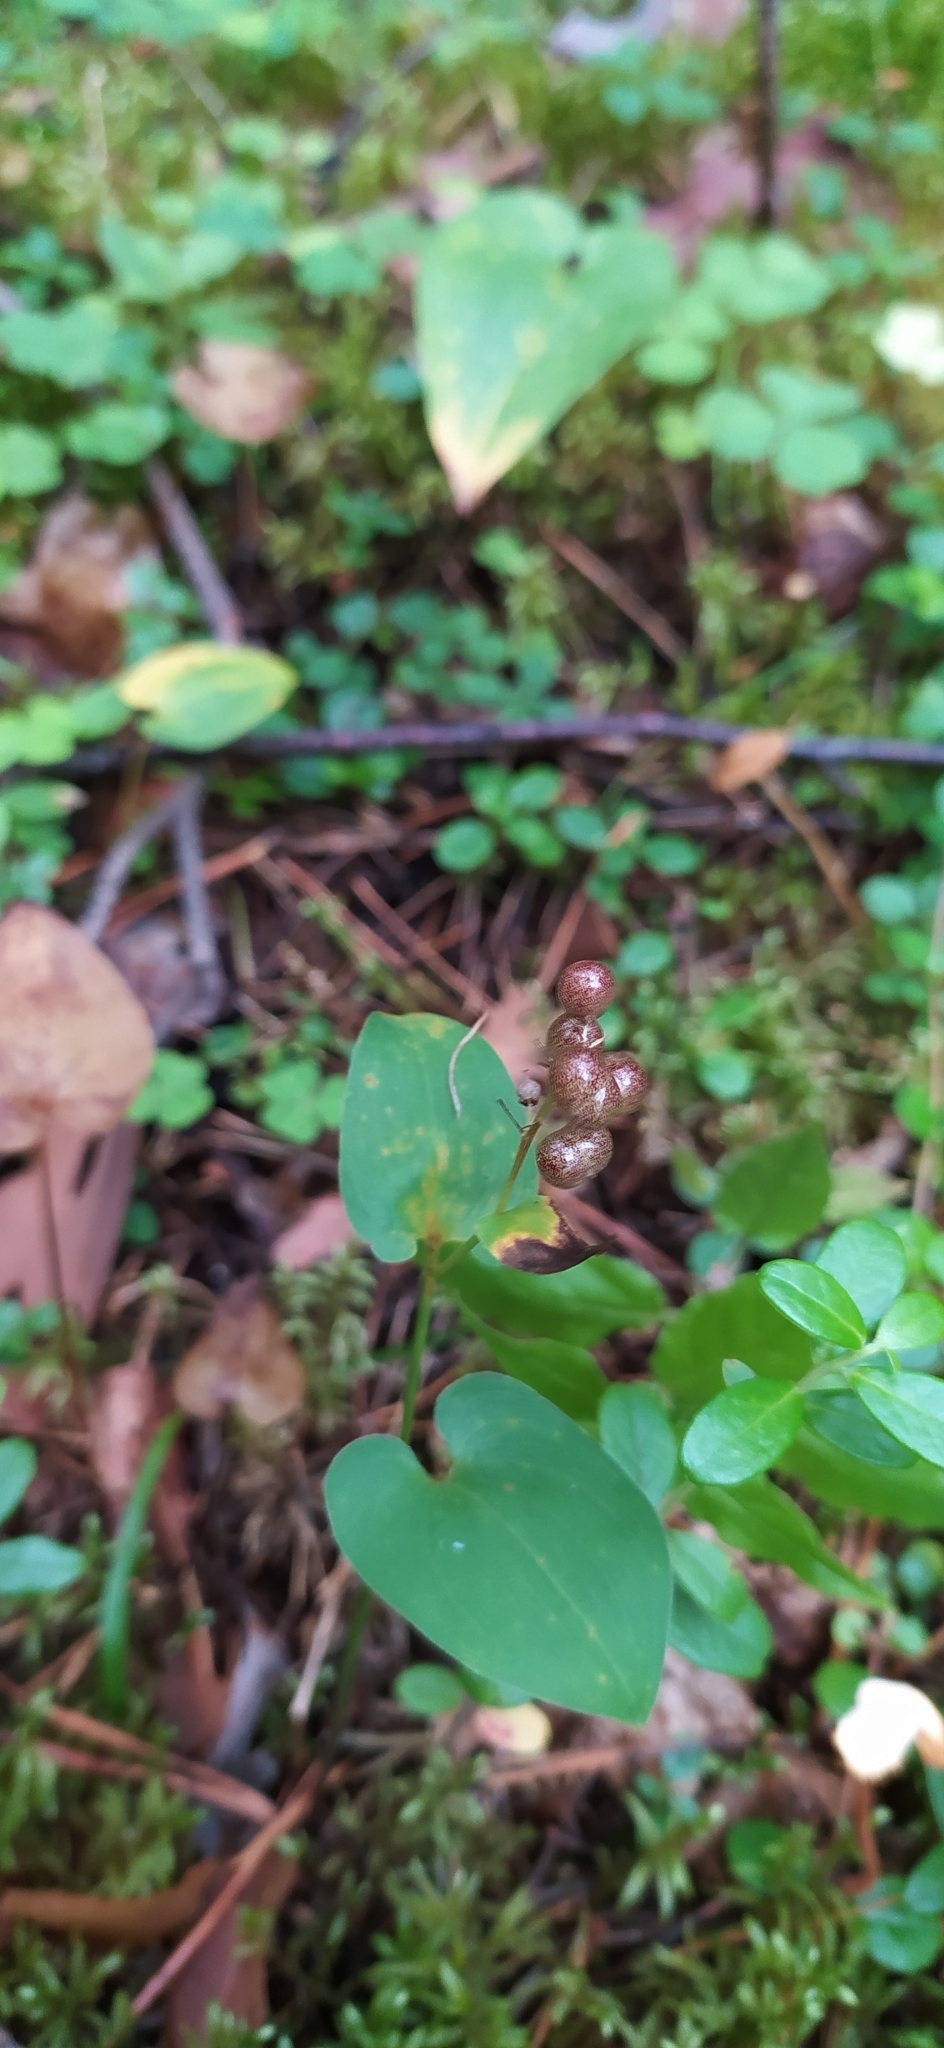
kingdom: Plantae
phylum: Tracheophyta
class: Liliopsida
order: Asparagales
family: Asparagaceae
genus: Maianthemum
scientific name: Maianthemum bifolium
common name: May lily
